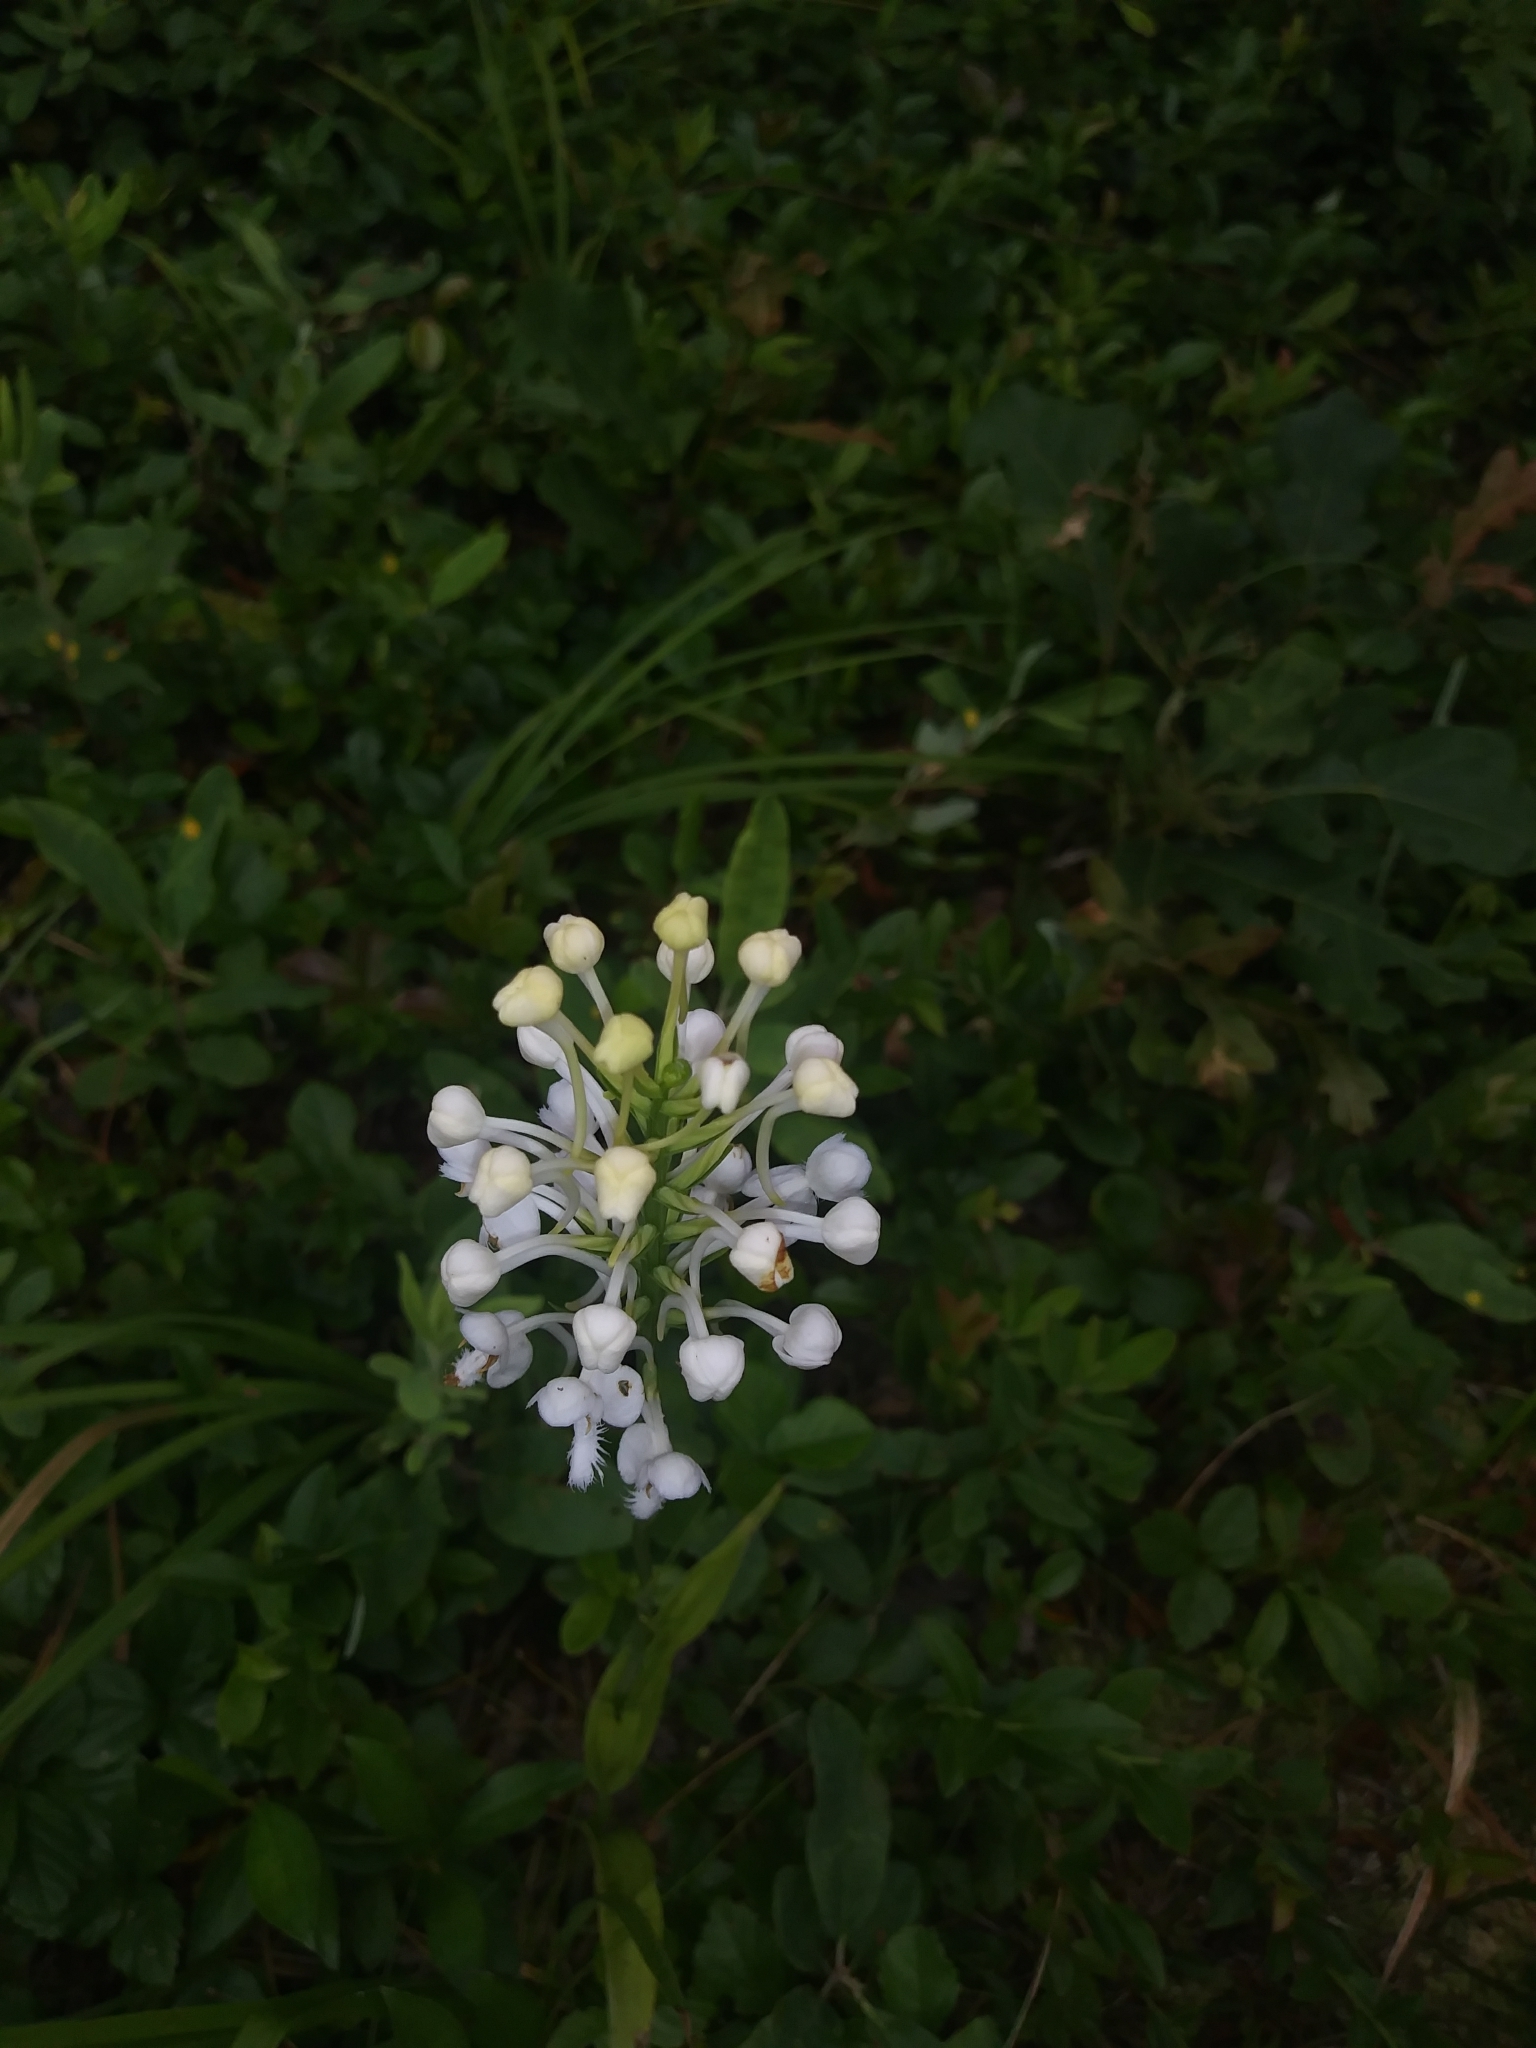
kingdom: Plantae
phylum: Tracheophyta
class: Liliopsida
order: Asparagales
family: Orchidaceae
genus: Platanthera
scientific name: Platanthera blephariglottis
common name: White fringed orchid
